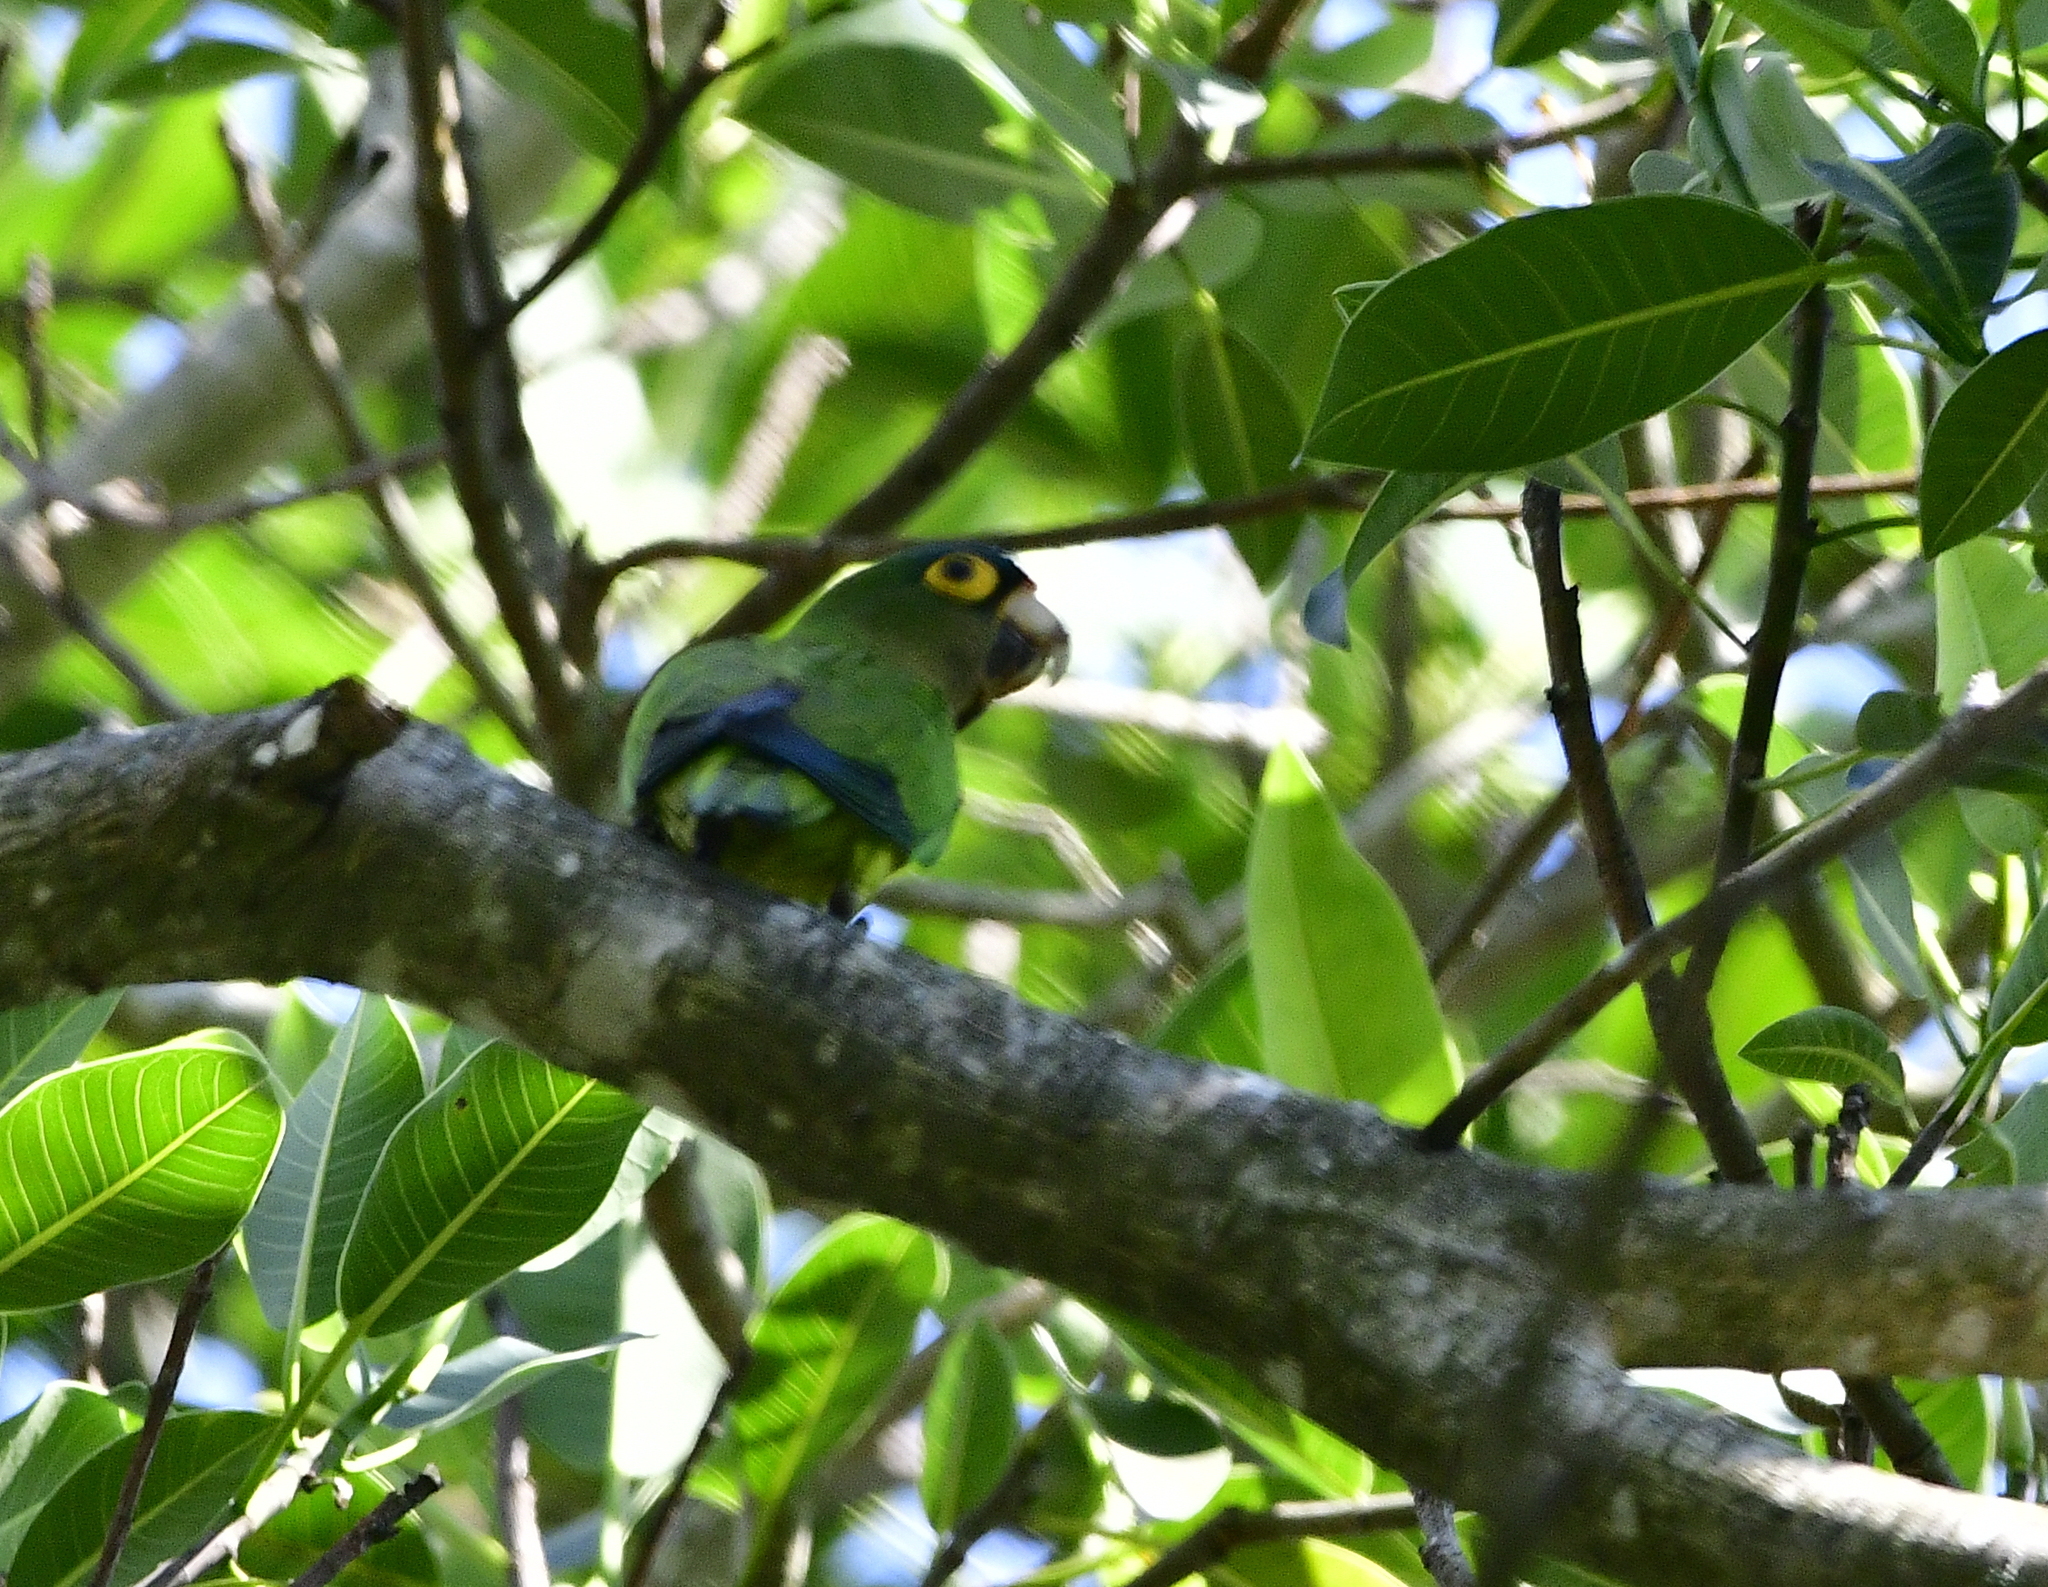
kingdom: Animalia
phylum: Chordata
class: Aves
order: Psittaciformes
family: Psittacidae
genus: Aratinga
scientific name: Aratinga canicularis
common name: Orange-fronted parakeet
